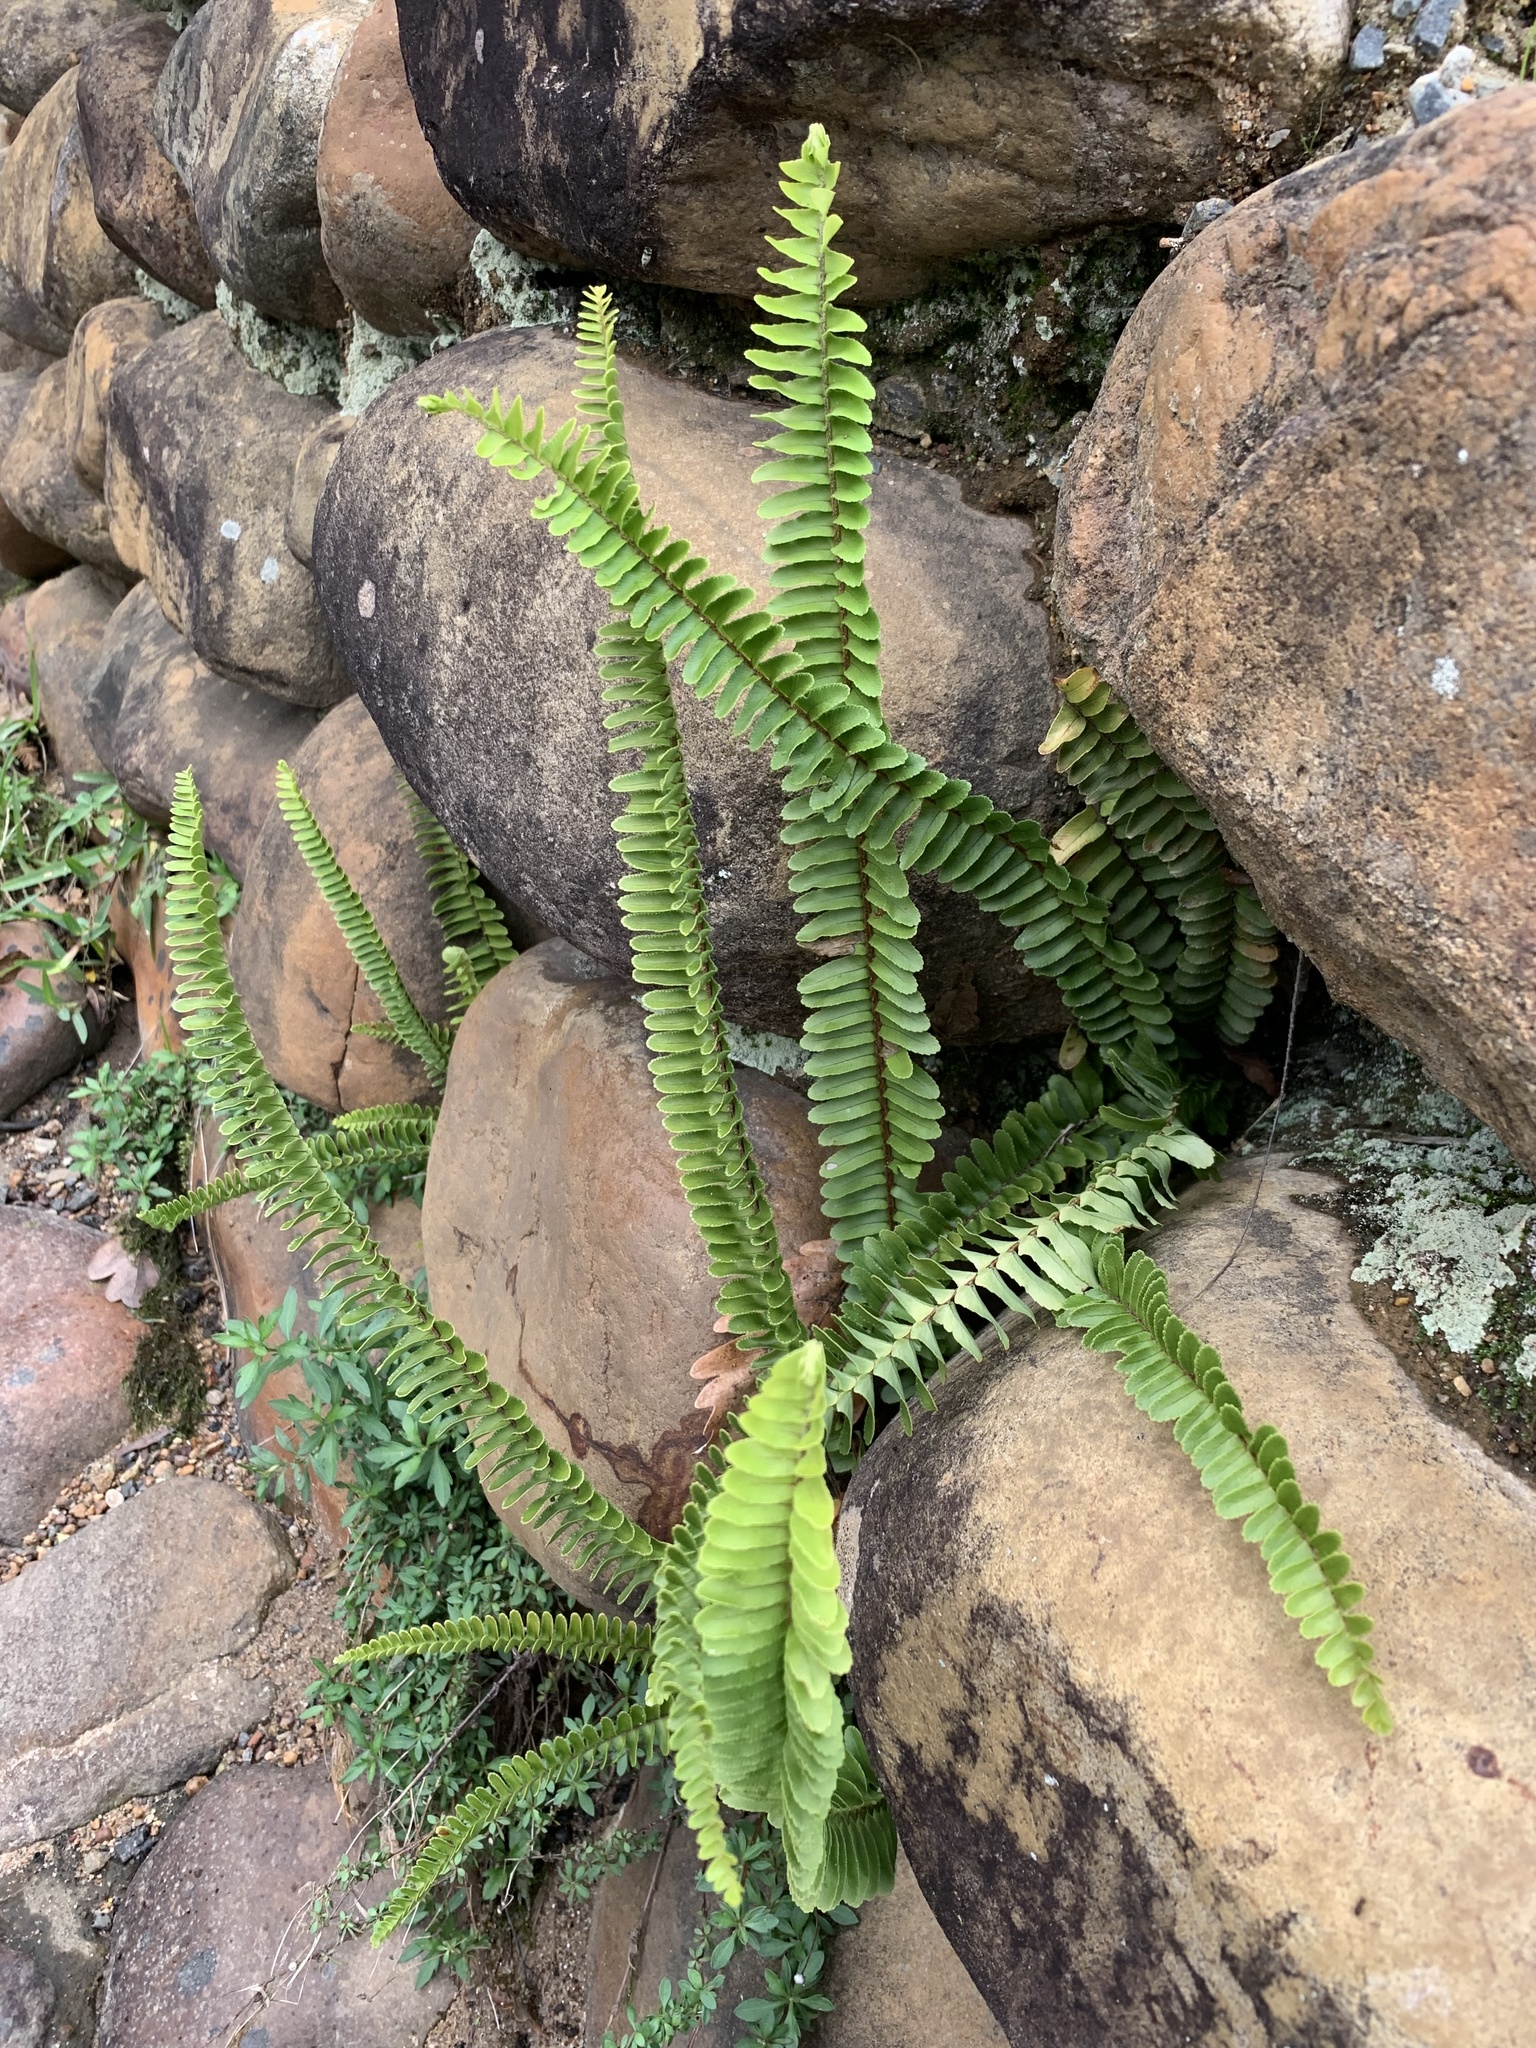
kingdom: Plantae
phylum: Tracheophyta
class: Polypodiopsida
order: Polypodiales
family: Nephrolepidaceae
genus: Nephrolepis
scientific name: Nephrolepis cordifolia
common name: Narrow swordfern
